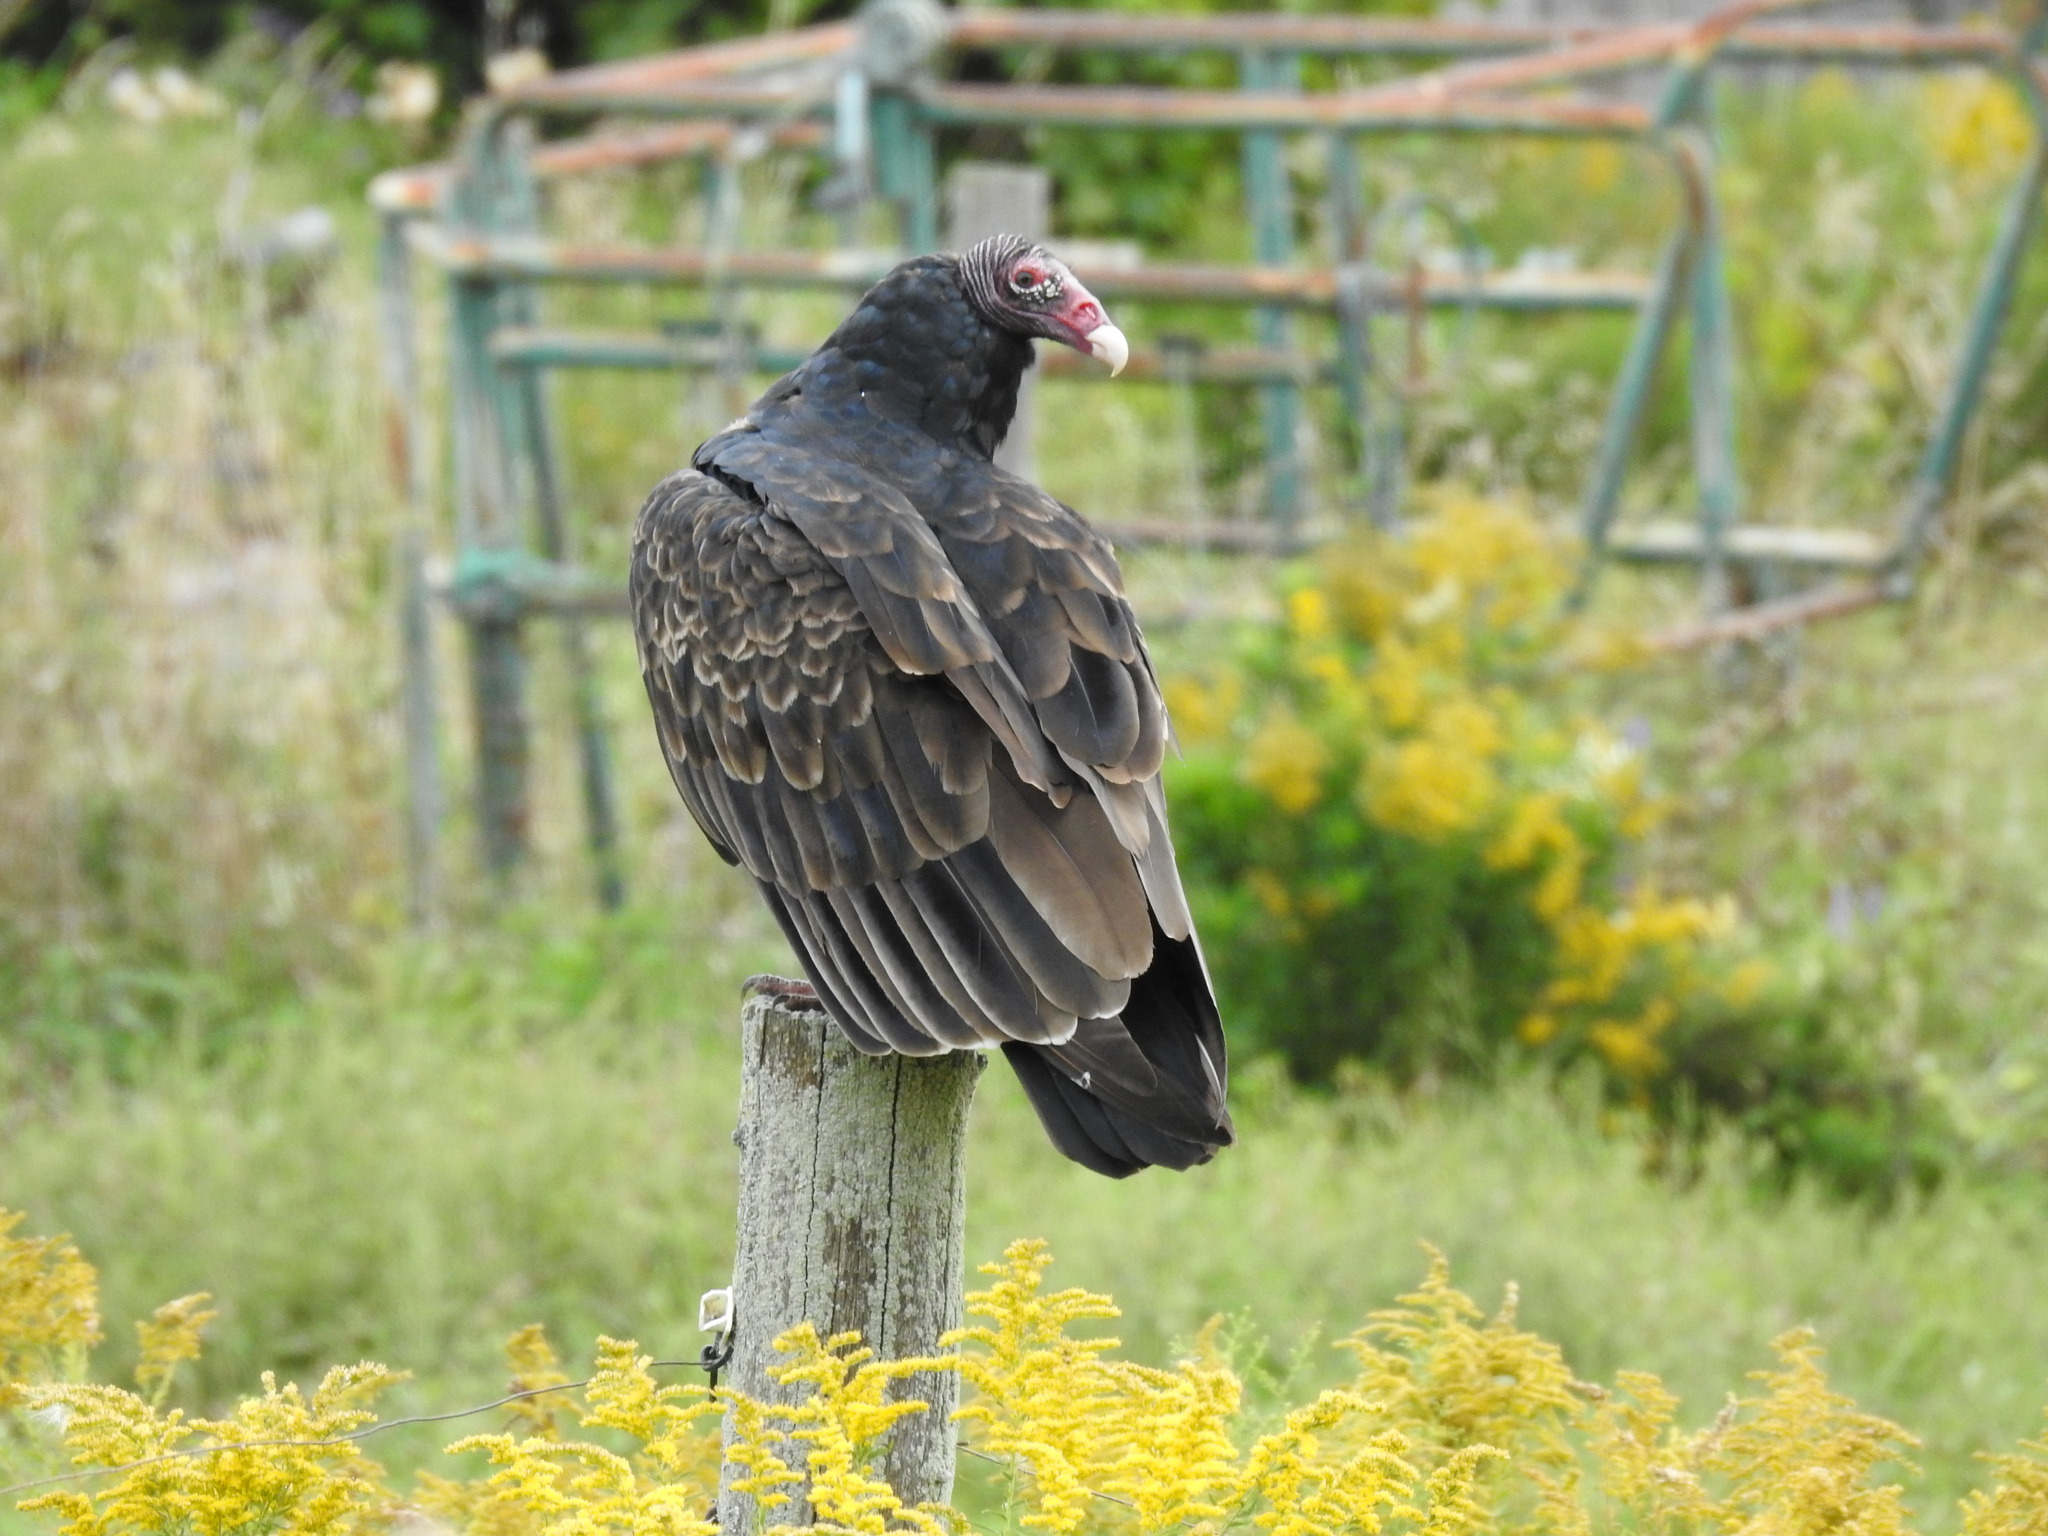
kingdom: Animalia
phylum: Chordata
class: Aves
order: Accipitriformes
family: Cathartidae
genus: Cathartes
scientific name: Cathartes aura
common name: Turkey vulture
